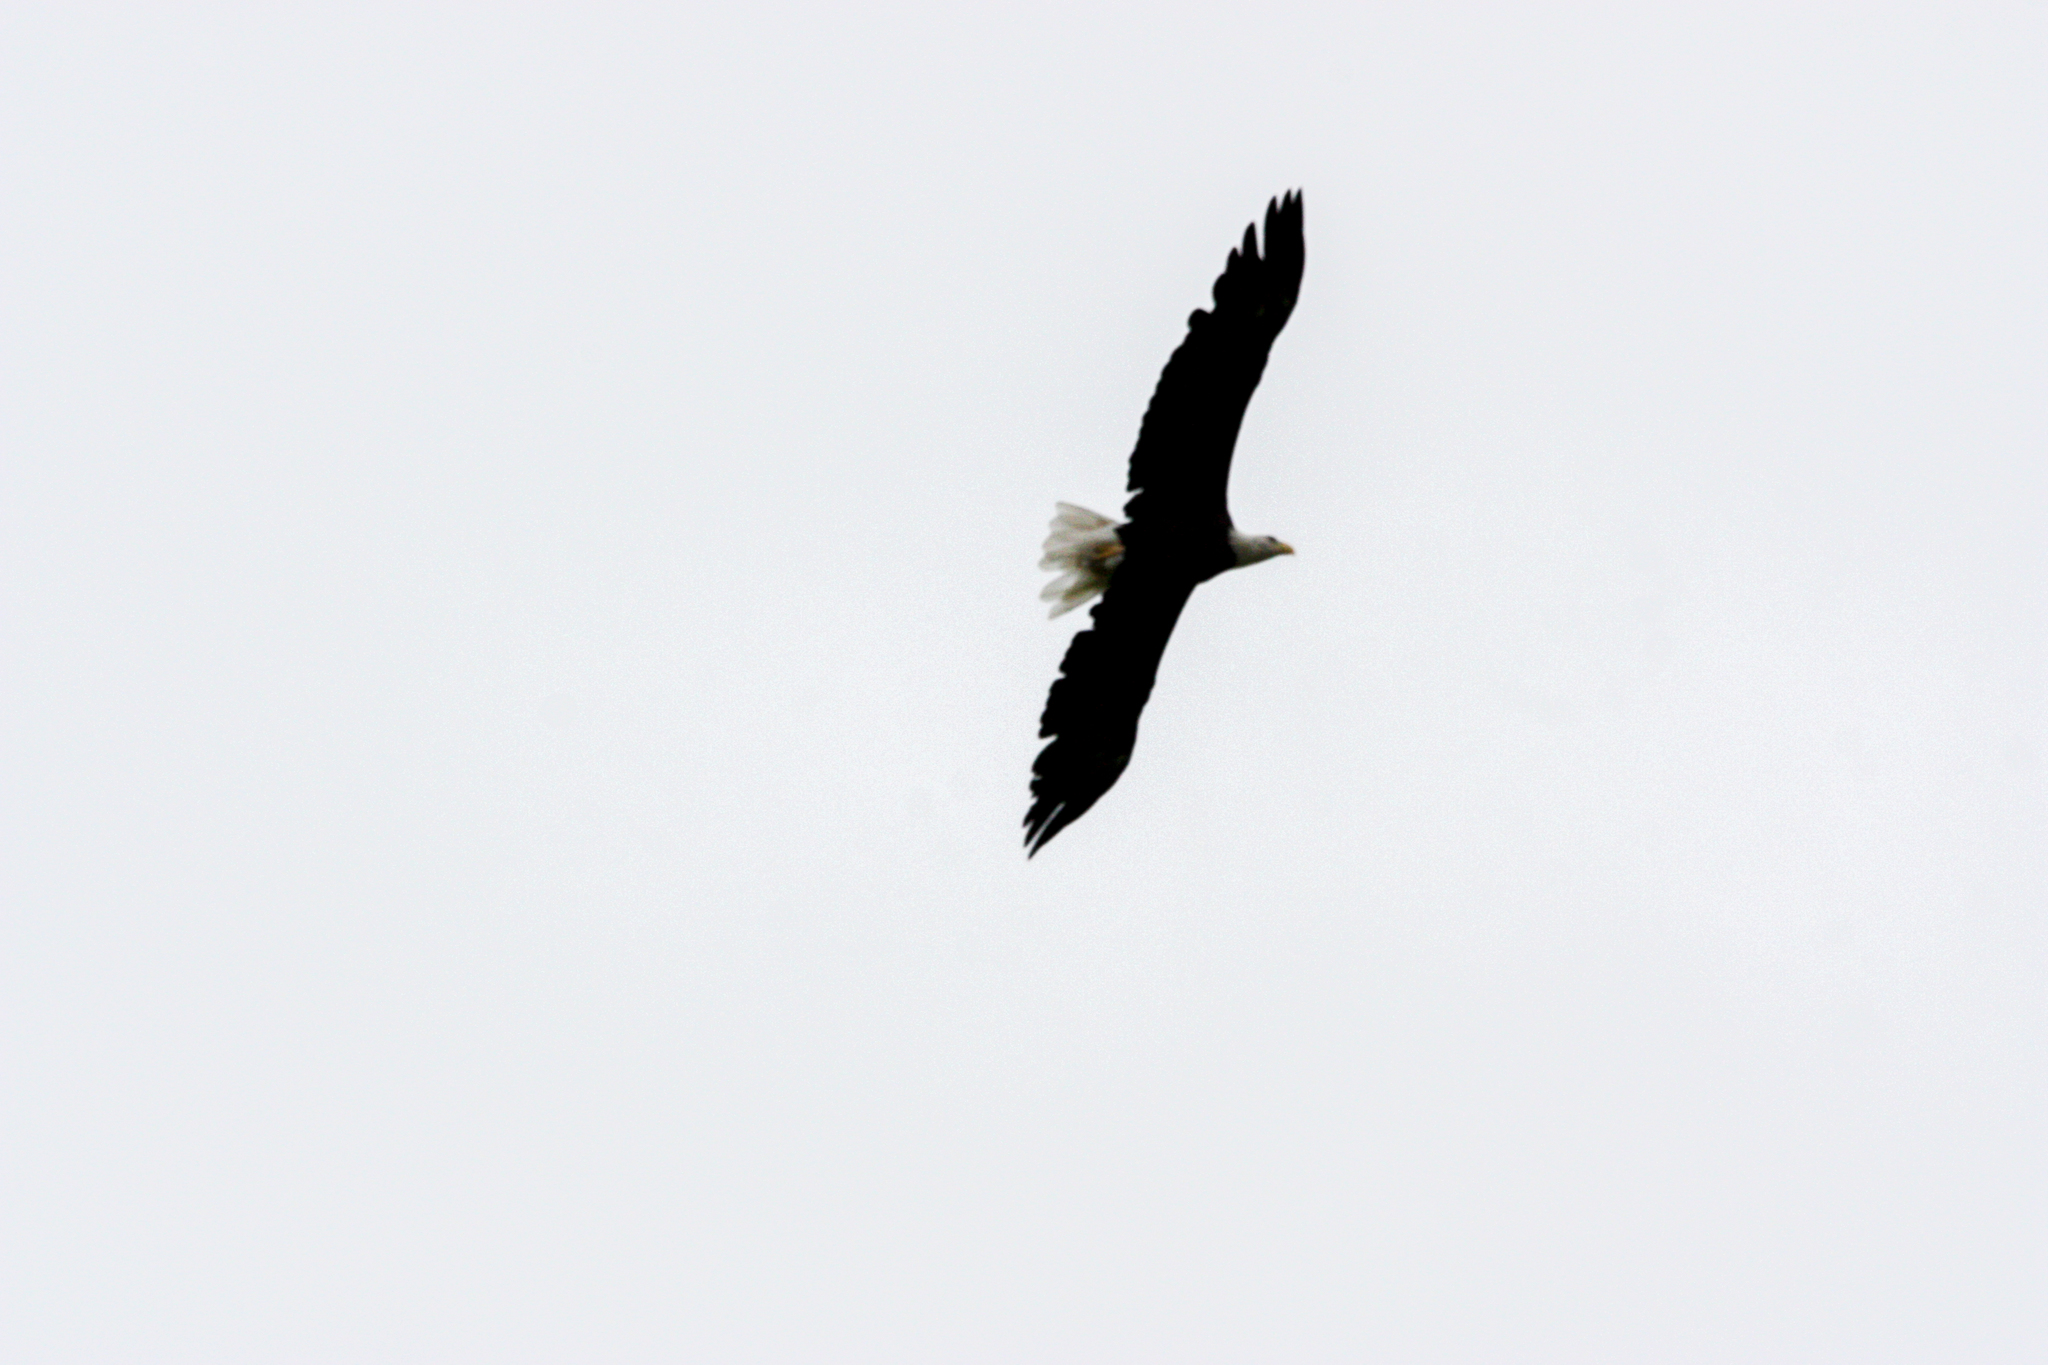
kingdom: Animalia
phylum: Chordata
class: Aves
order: Accipitriformes
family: Accipitridae
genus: Haliaeetus
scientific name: Haliaeetus leucocephalus
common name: Bald eagle
